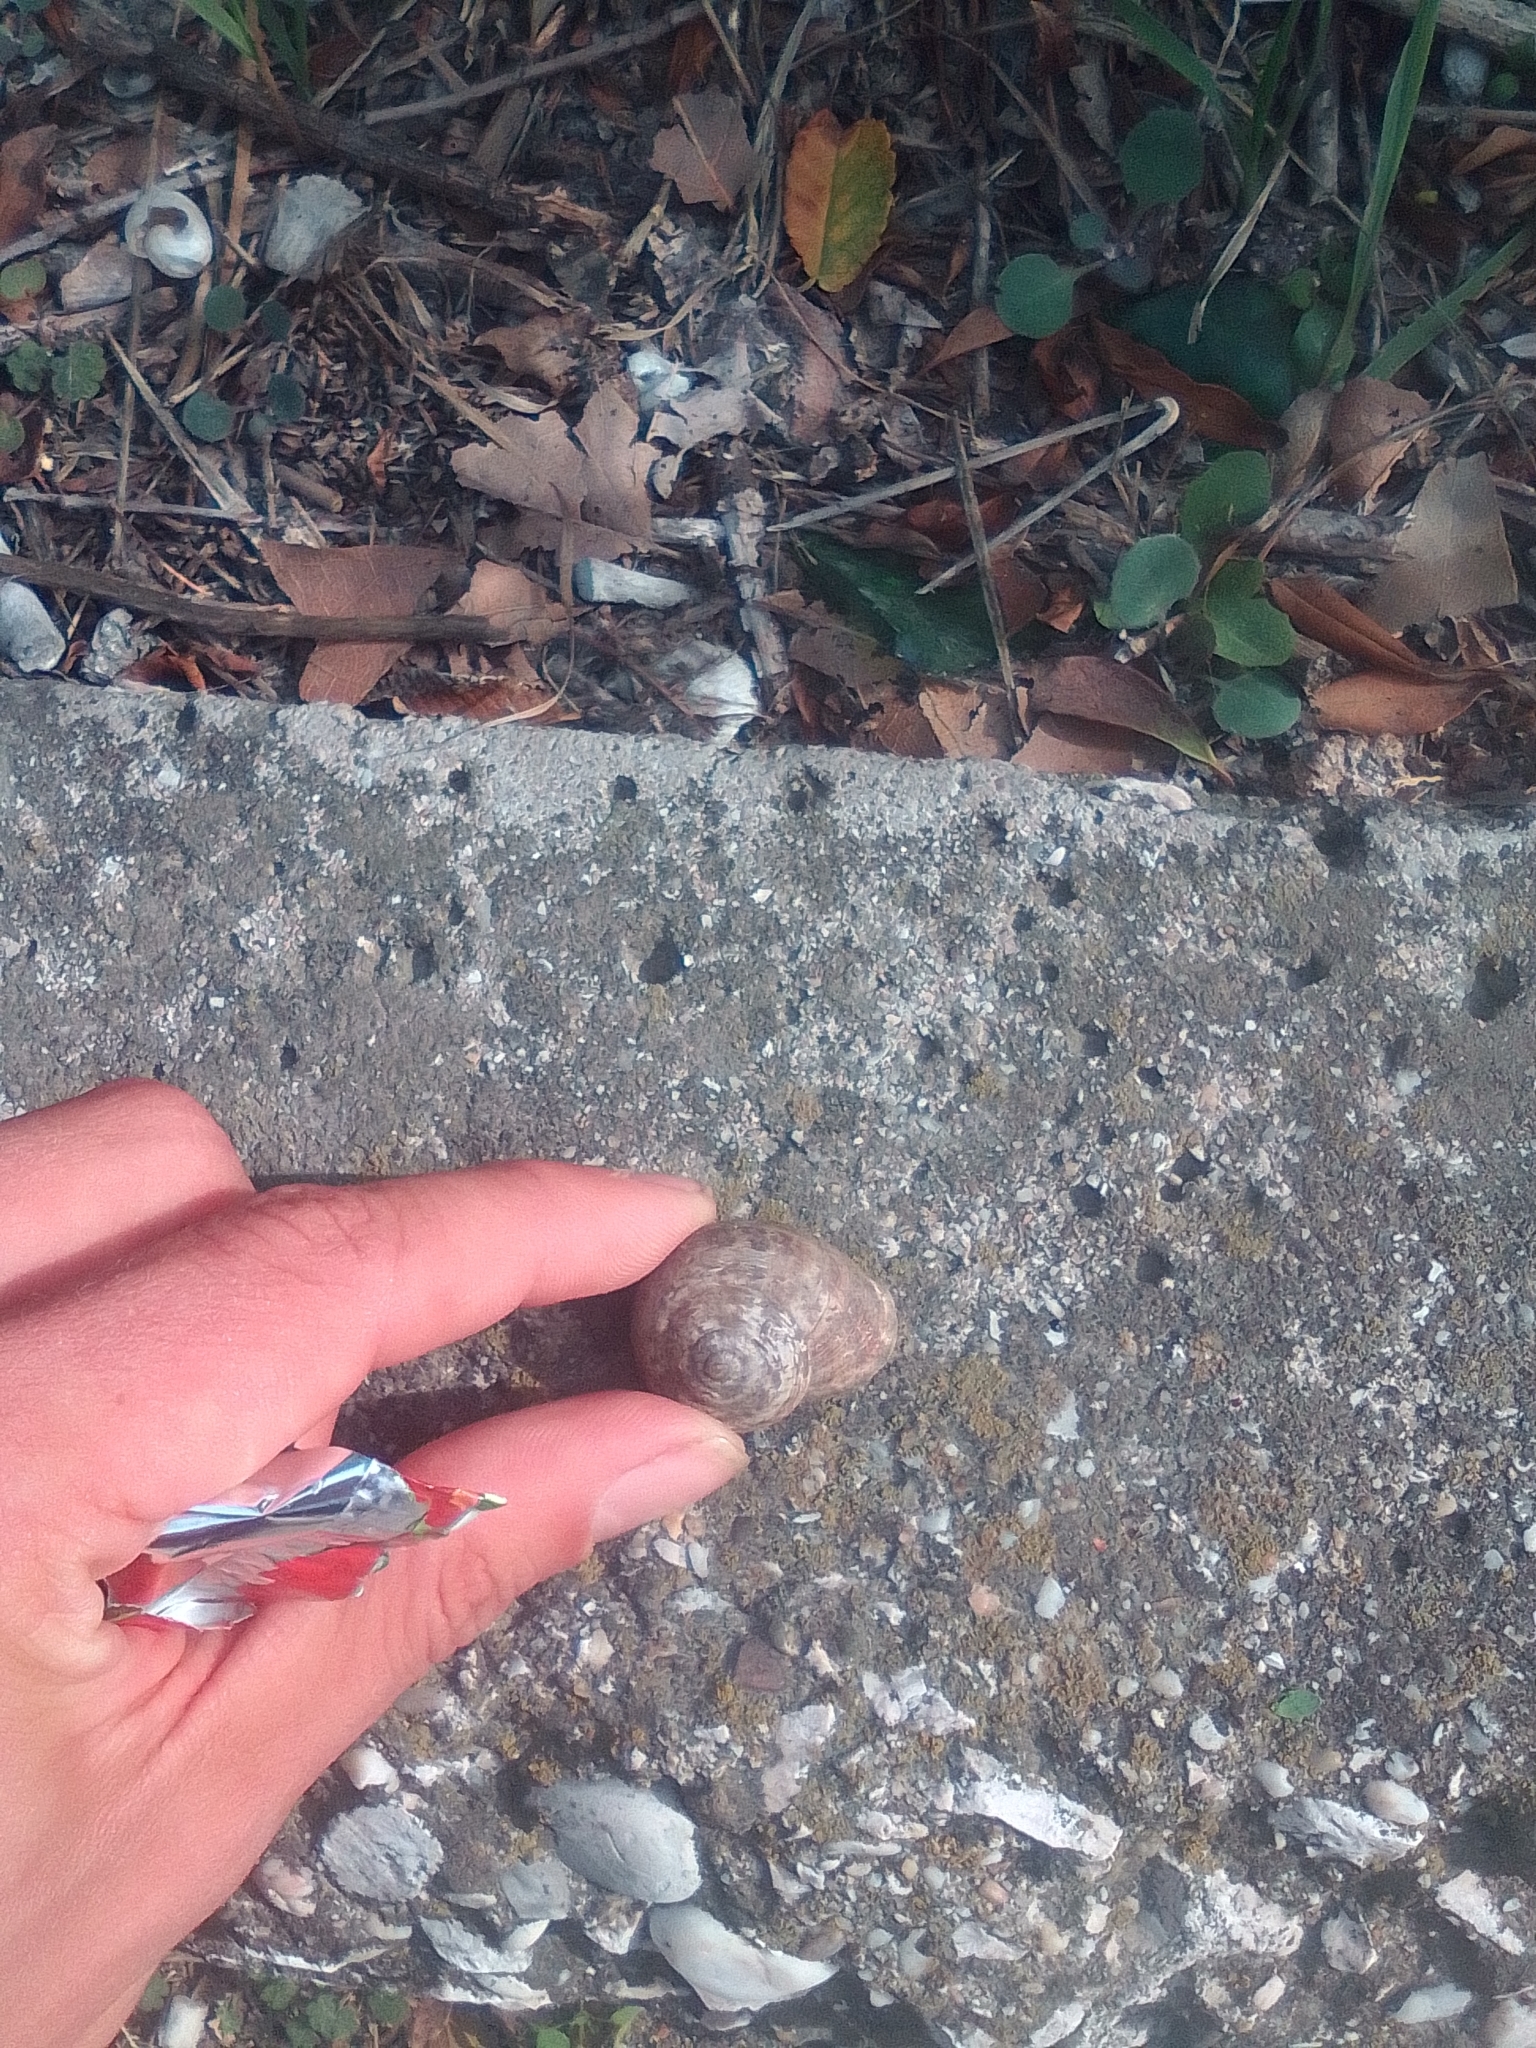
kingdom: Animalia
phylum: Mollusca
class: Gastropoda
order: Stylommatophora
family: Helicidae
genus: Eobania
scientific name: Eobania vermiculata
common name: Chocolateband snail
